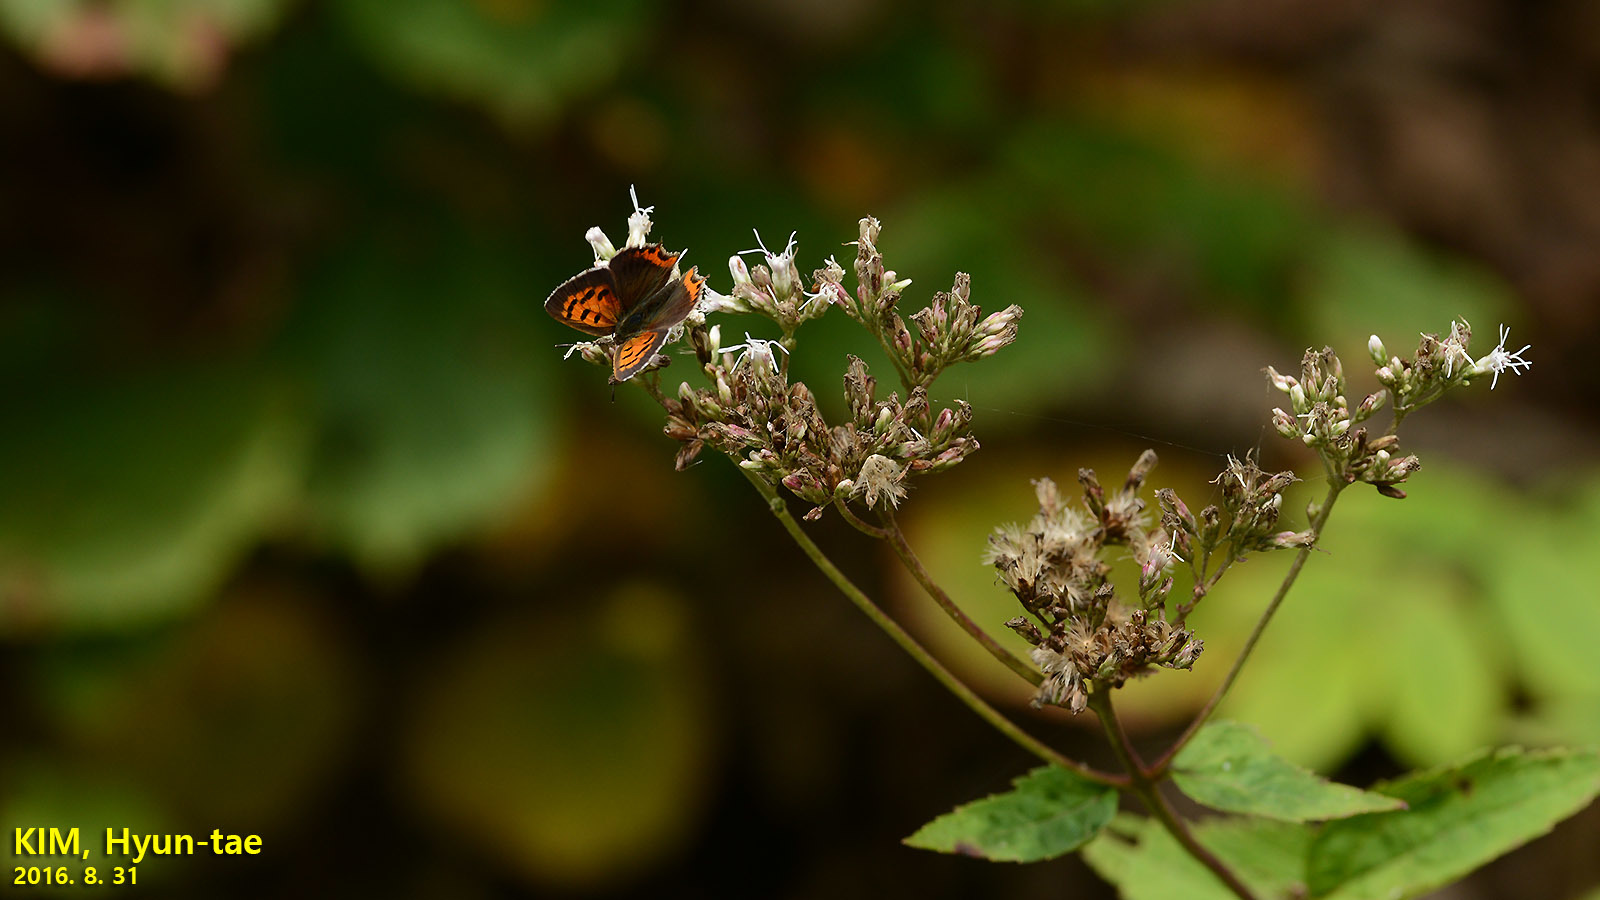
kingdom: Animalia
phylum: Arthropoda
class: Insecta
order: Lepidoptera
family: Lycaenidae
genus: Lycaena
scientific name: Lycaena phlaeas
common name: Small copper
